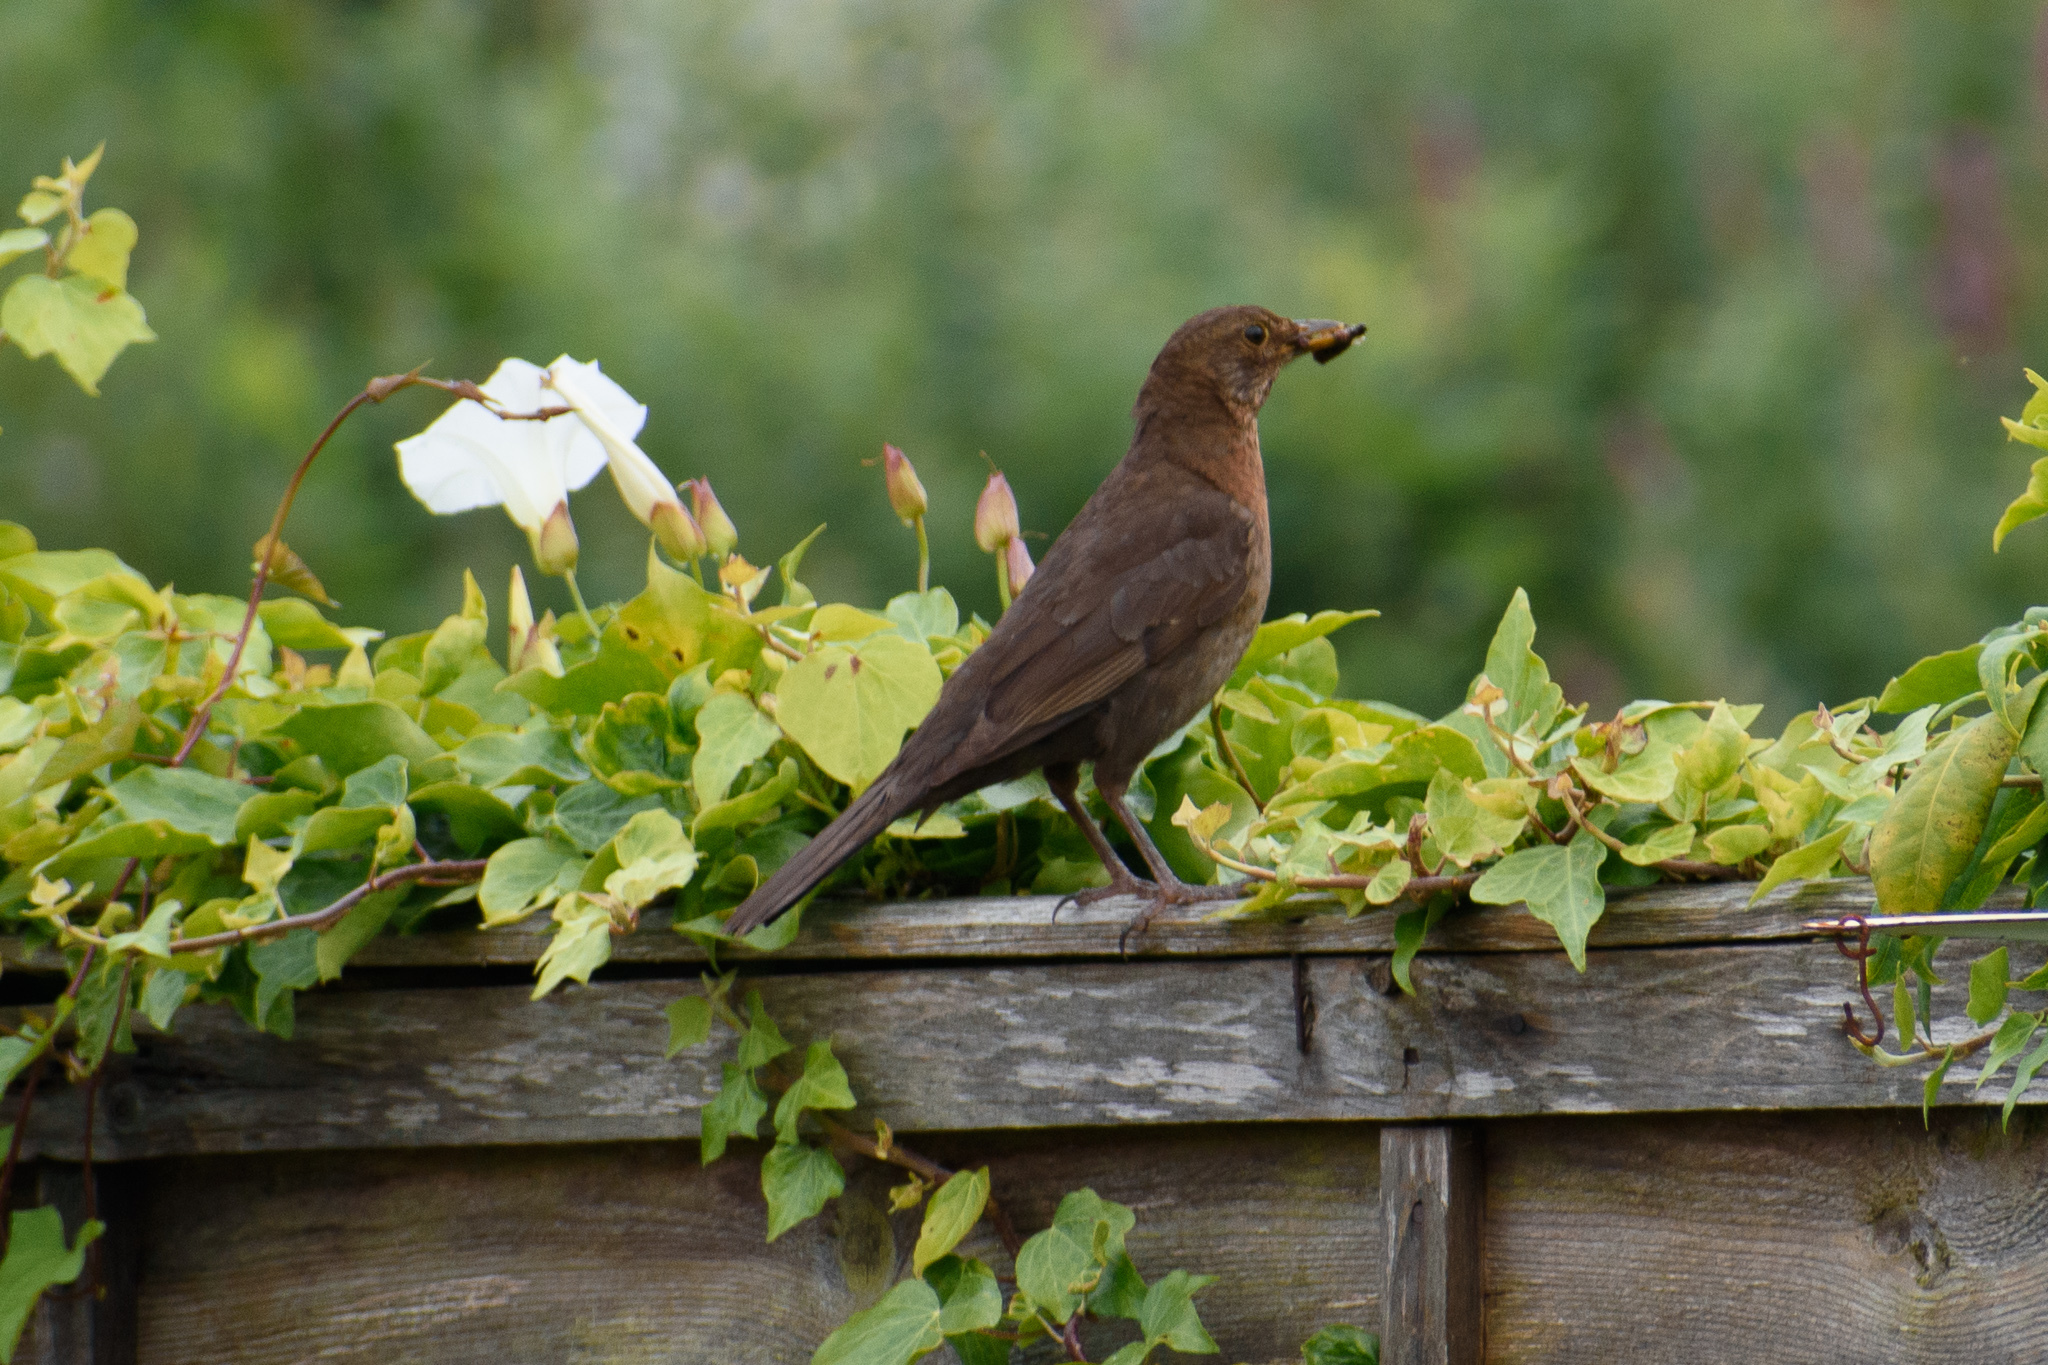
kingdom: Animalia
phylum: Chordata
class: Aves
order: Passeriformes
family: Turdidae
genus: Turdus
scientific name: Turdus merula
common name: Common blackbird
